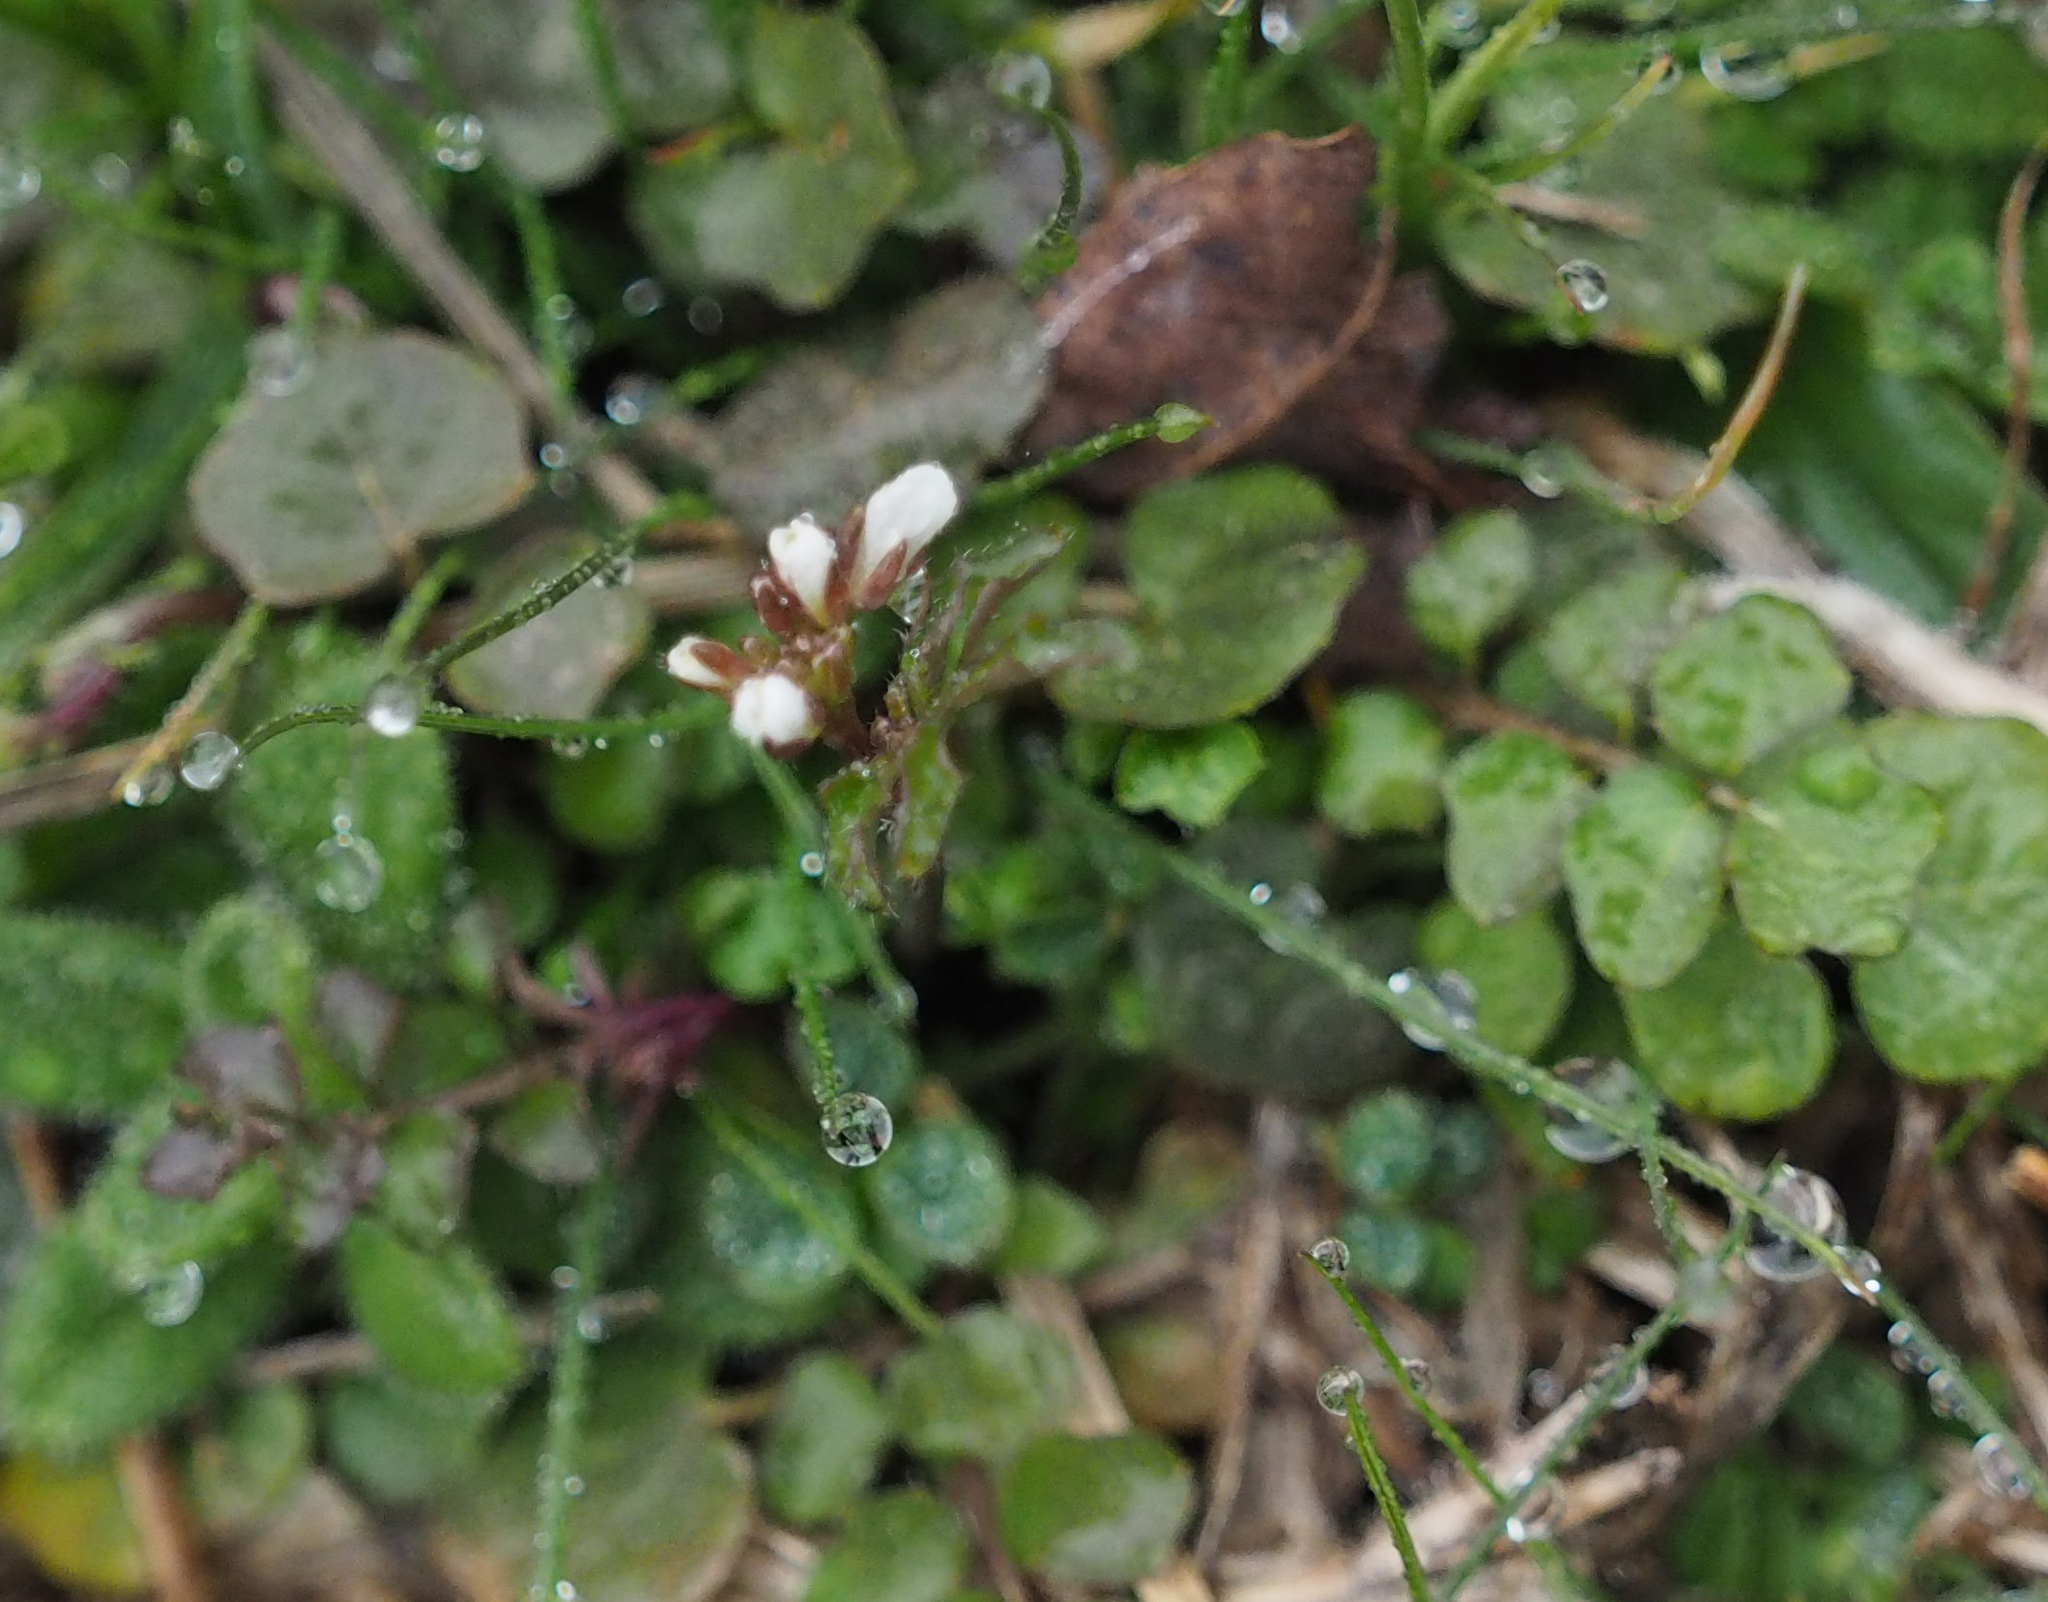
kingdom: Plantae
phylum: Tracheophyta
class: Magnoliopsida
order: Brassicales
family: Brassicaceae
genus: Cardamine
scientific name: Cardamine hirsuta
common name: Hairy bittercress
